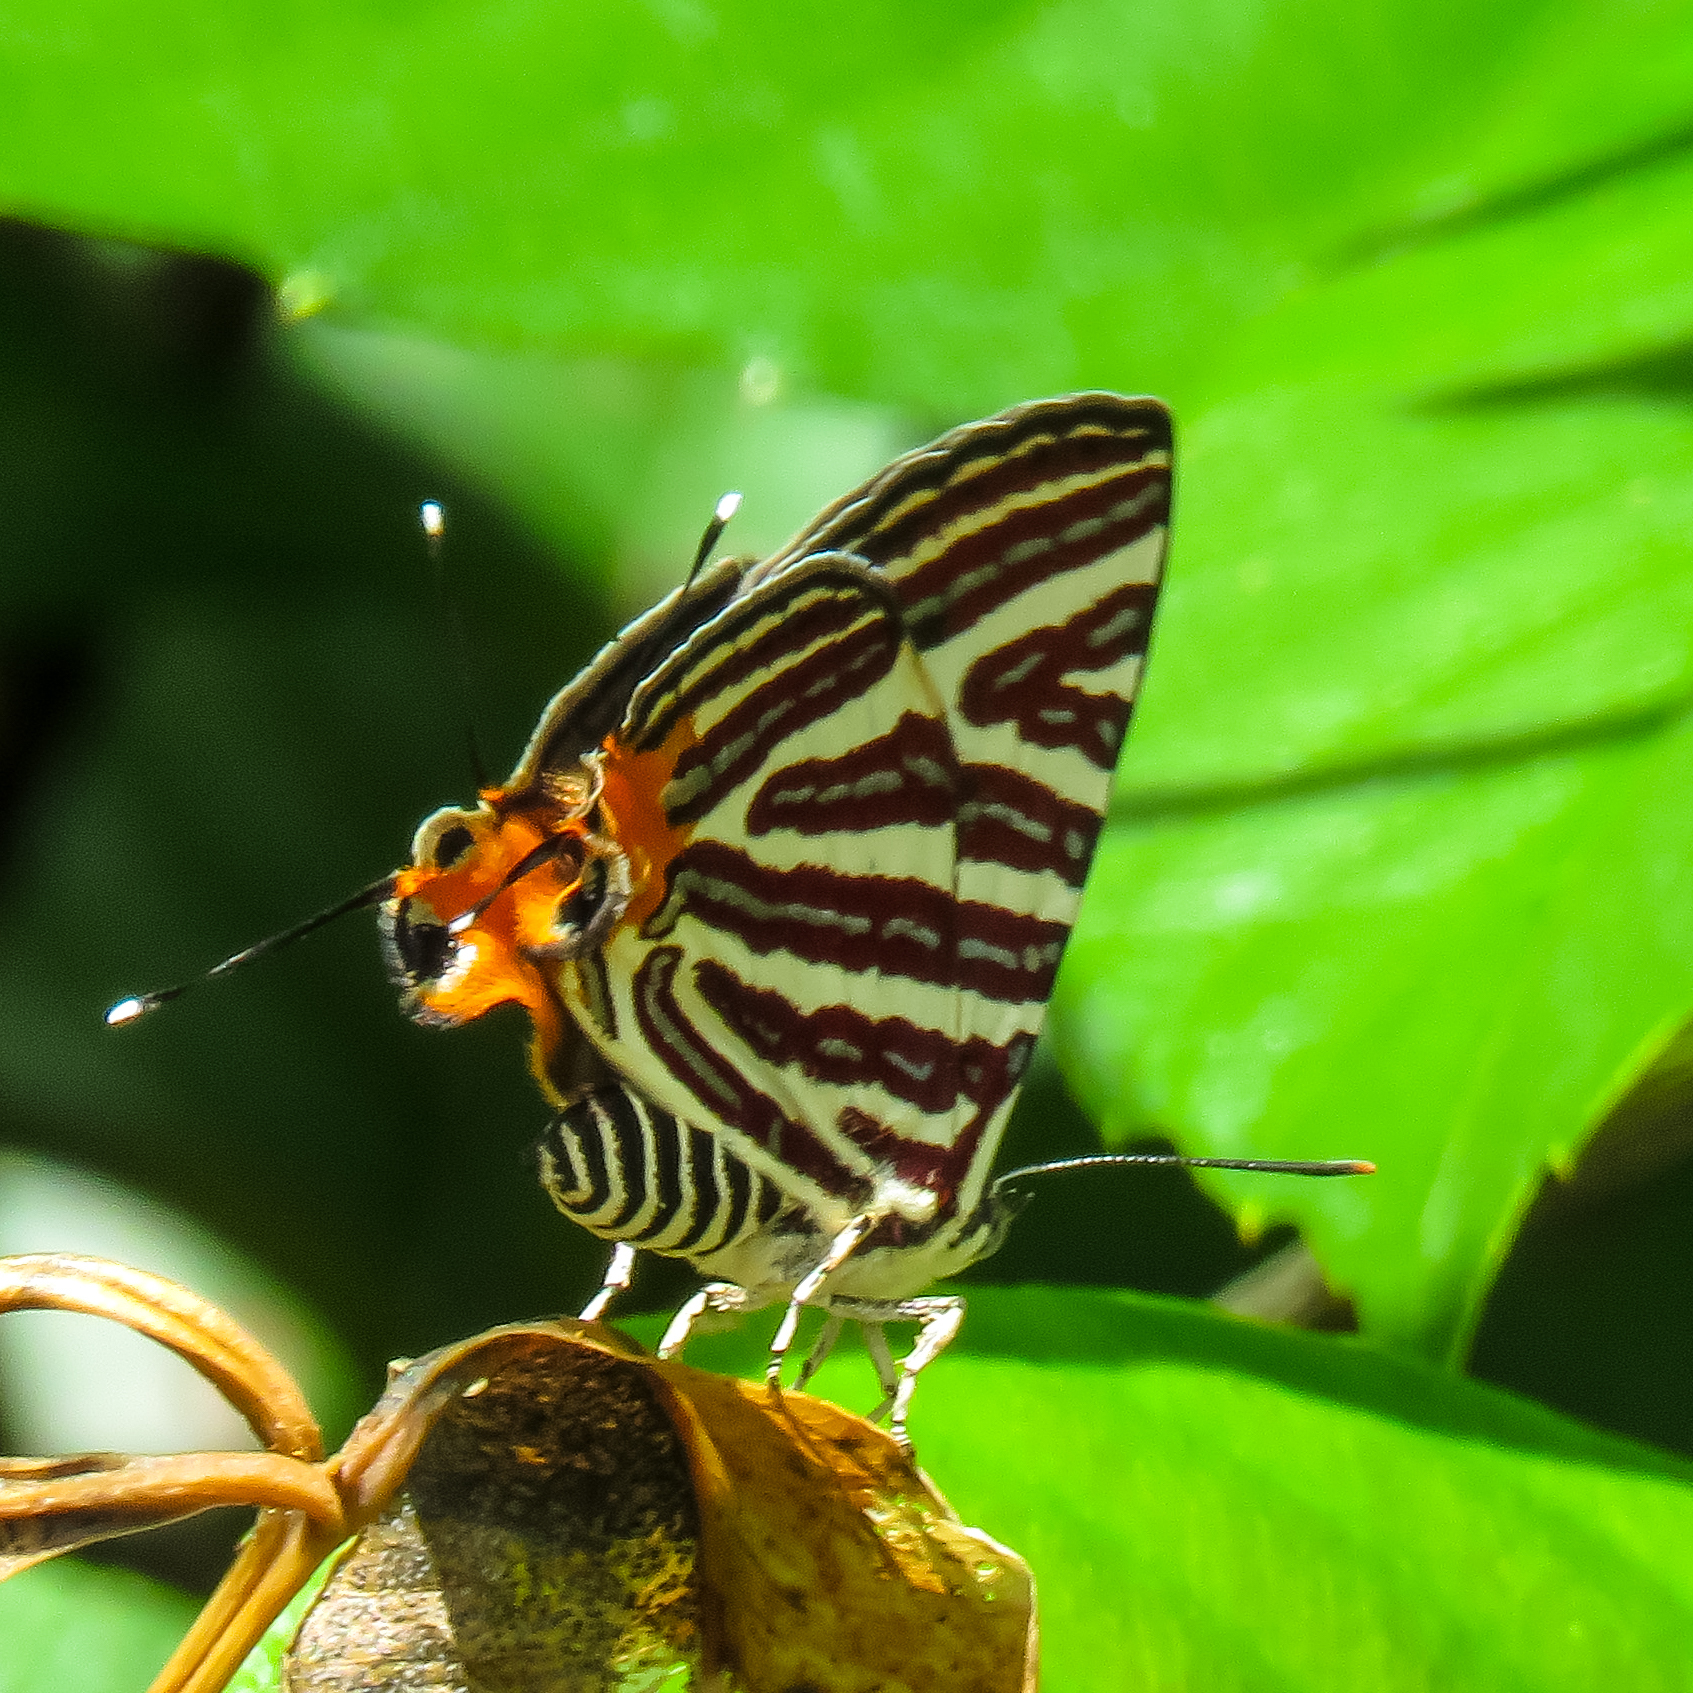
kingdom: Animalia
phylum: Arthropoda
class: Insecta
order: Lepidoptera
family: Lycaenidae
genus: Cigaritis
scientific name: Cigaritis lohita
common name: Long-banded silverline
